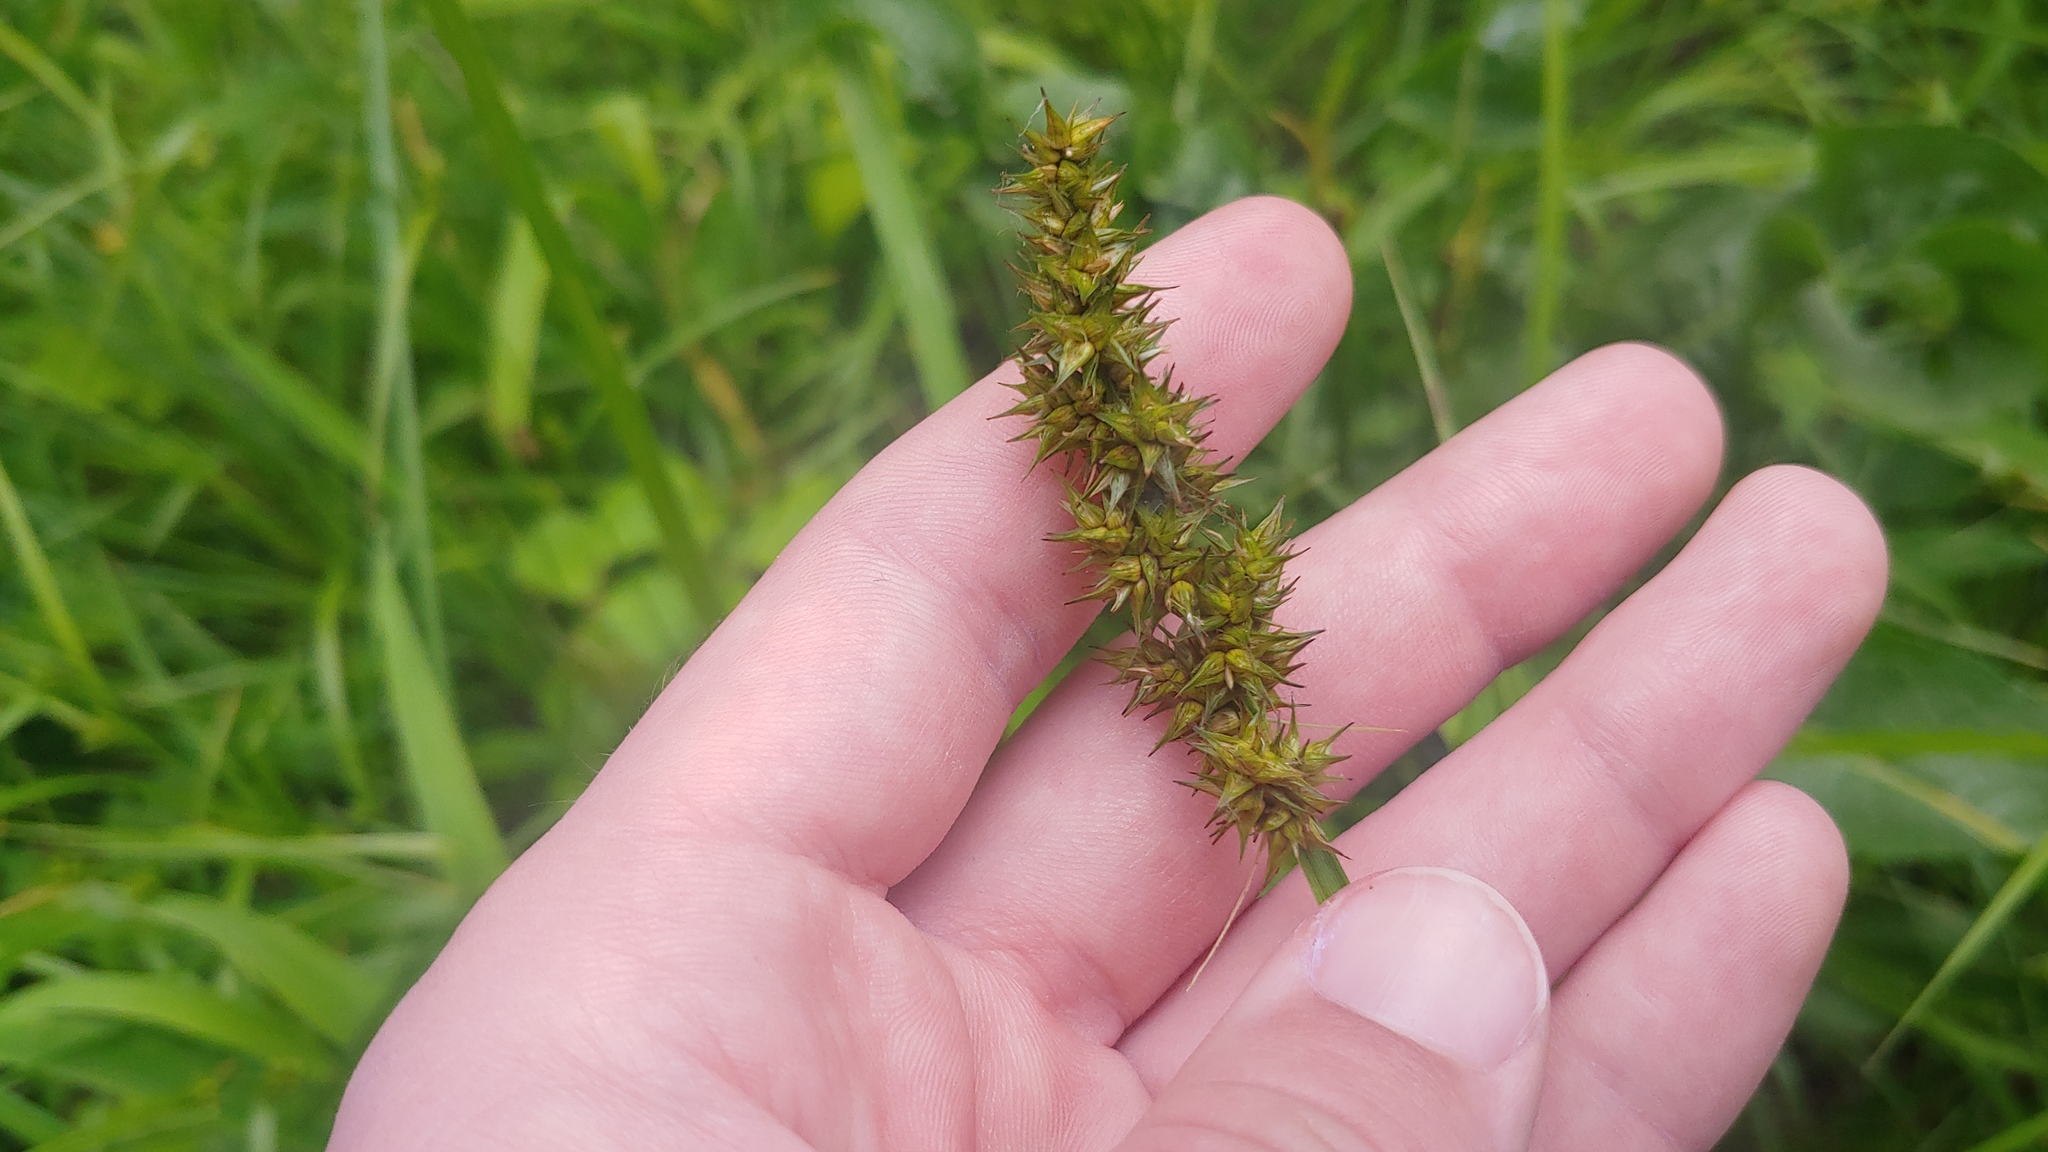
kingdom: Plantae
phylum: Tracheophyta
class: Liliopsida
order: Poales
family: Cyperaceae
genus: Carex
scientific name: Carex stipata
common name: Awl-fruited sedge
